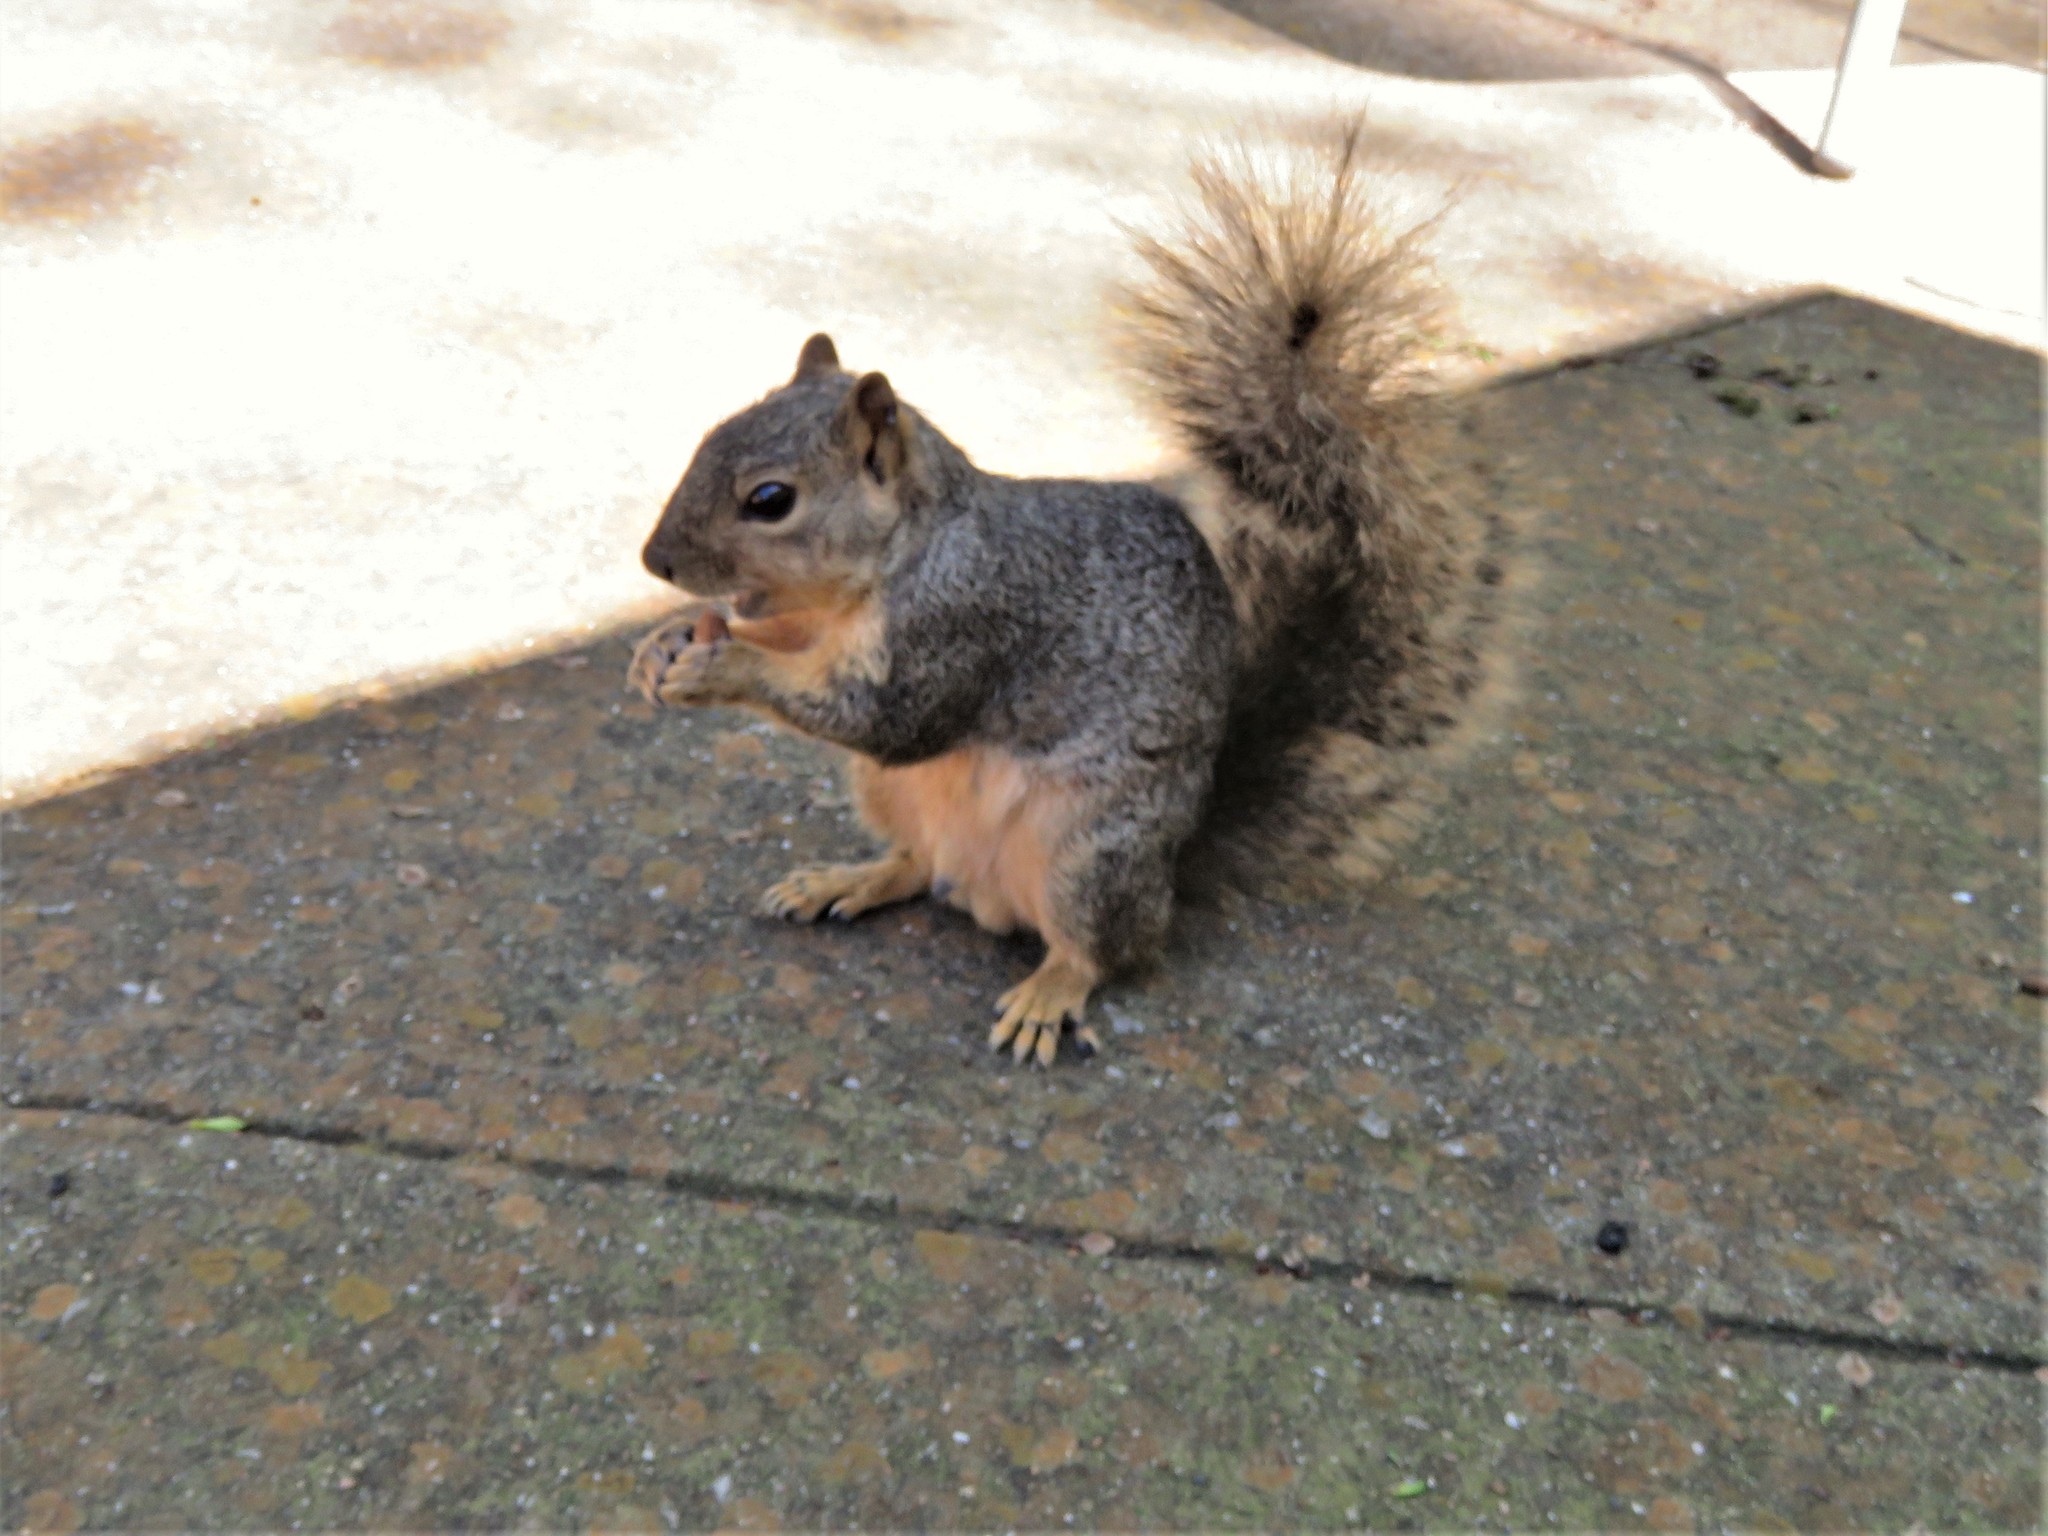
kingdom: Animalia
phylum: Chordata
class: Mammalia
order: Rodentia
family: Sciuridae
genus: Sciurus
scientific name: Sciurus niger
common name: Fox squirrel
